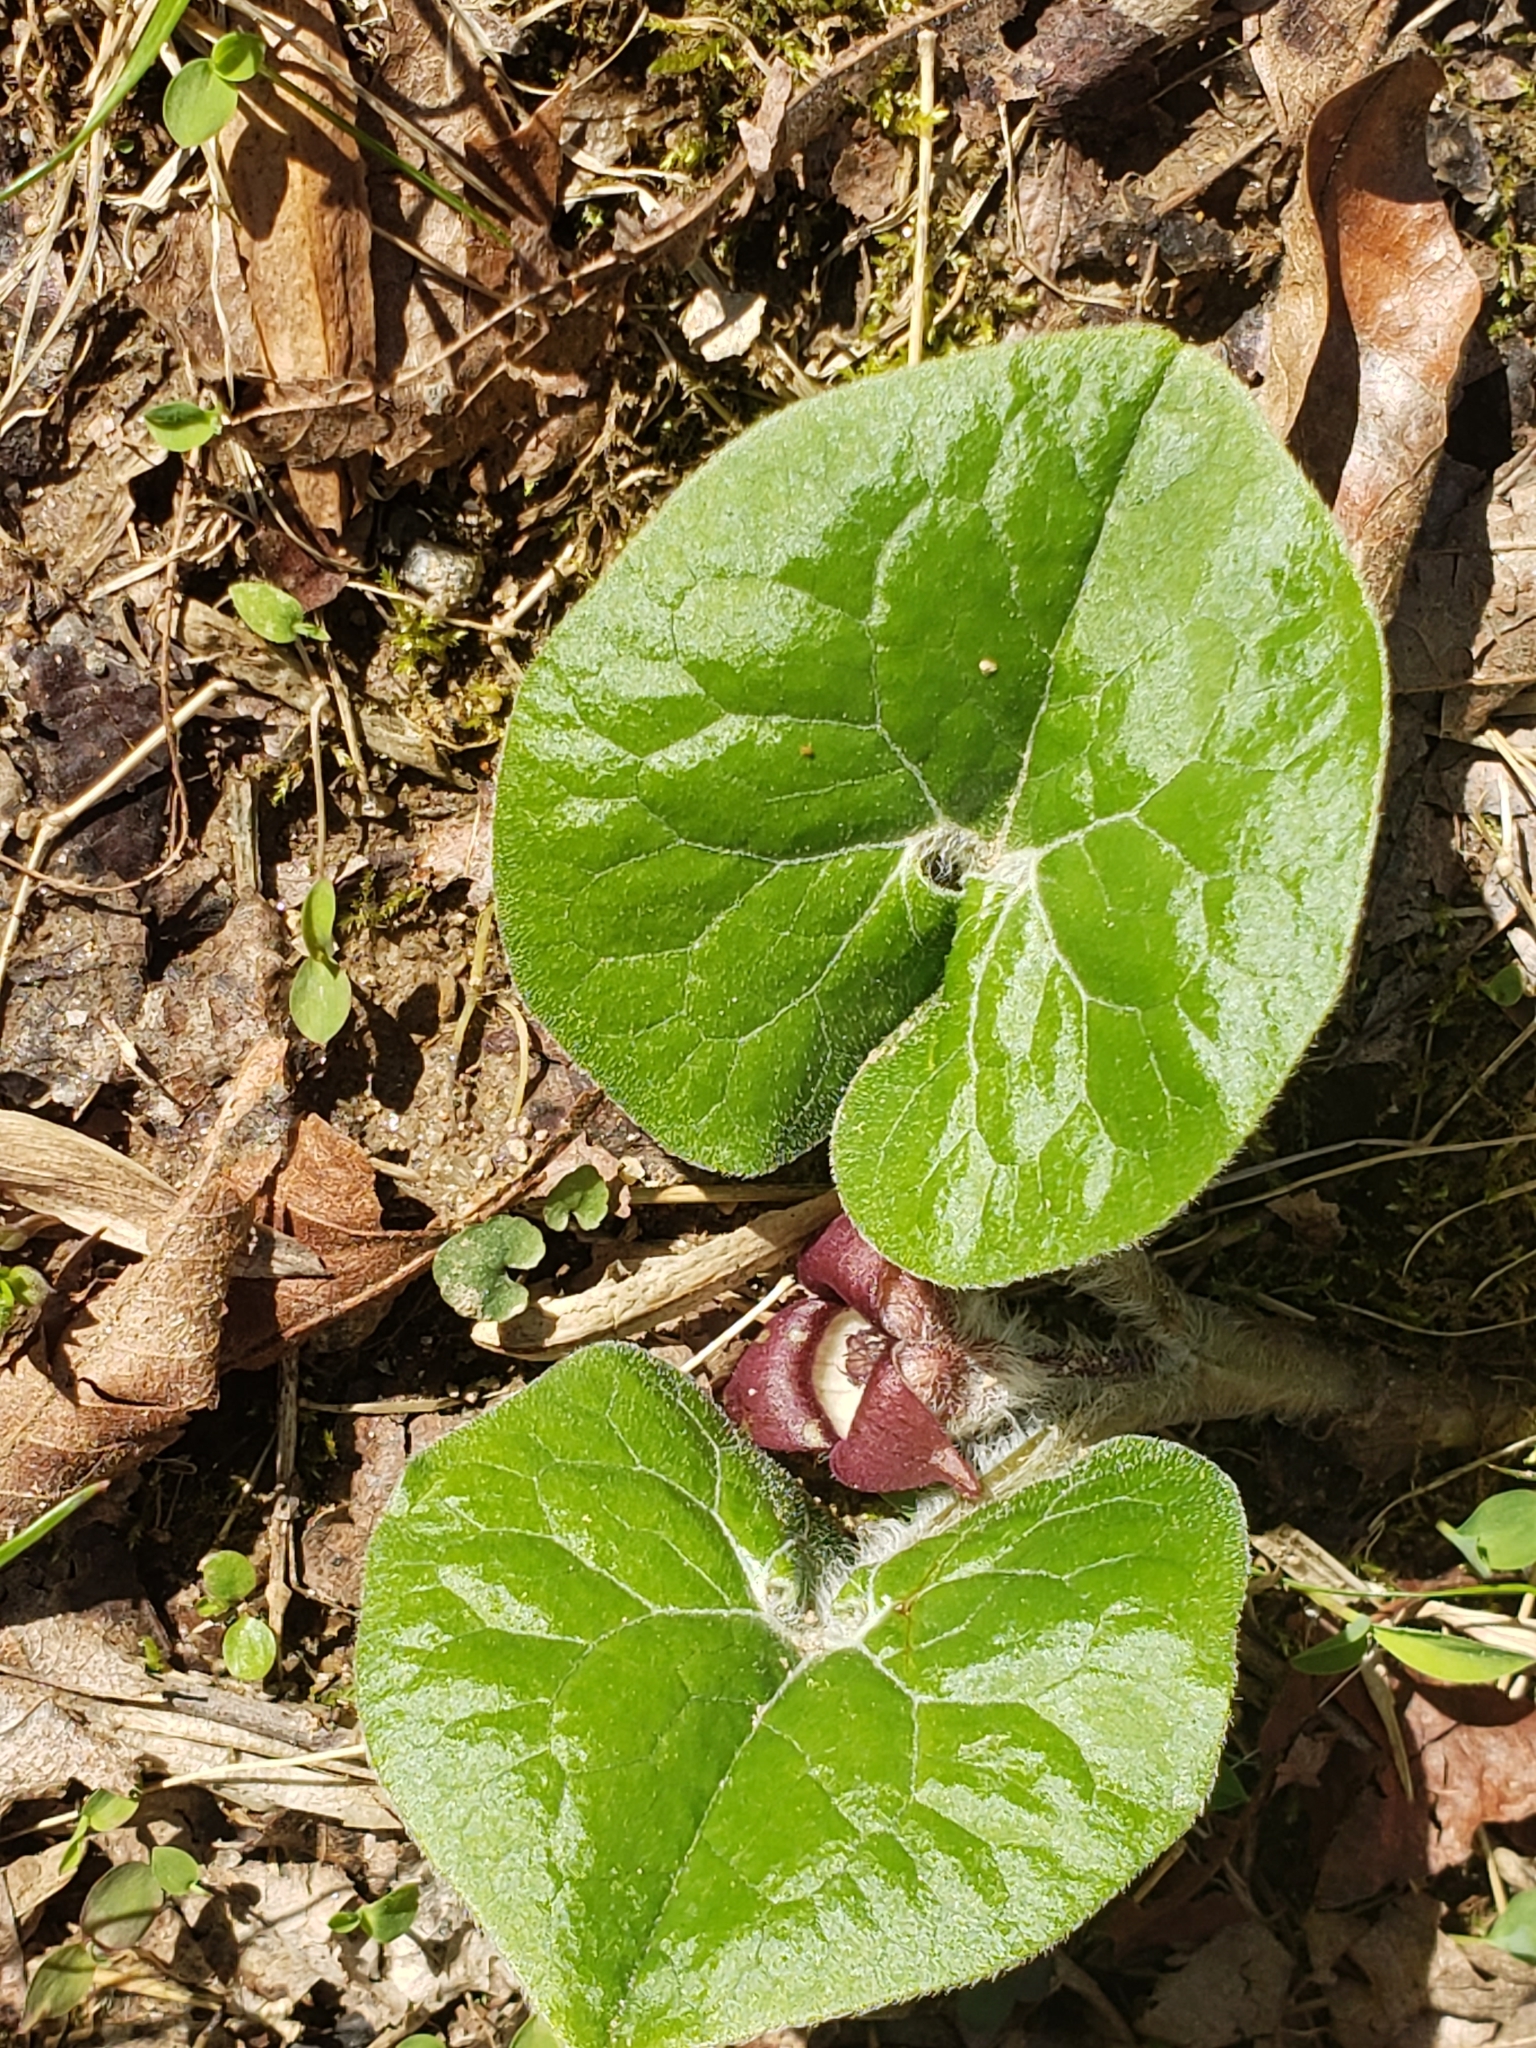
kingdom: Plantae
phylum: Tracheophyta
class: Magnoliopsida
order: Piperales
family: Aristolochiaceae
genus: Asarum
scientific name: Asarum canadense
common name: Wild ginger
